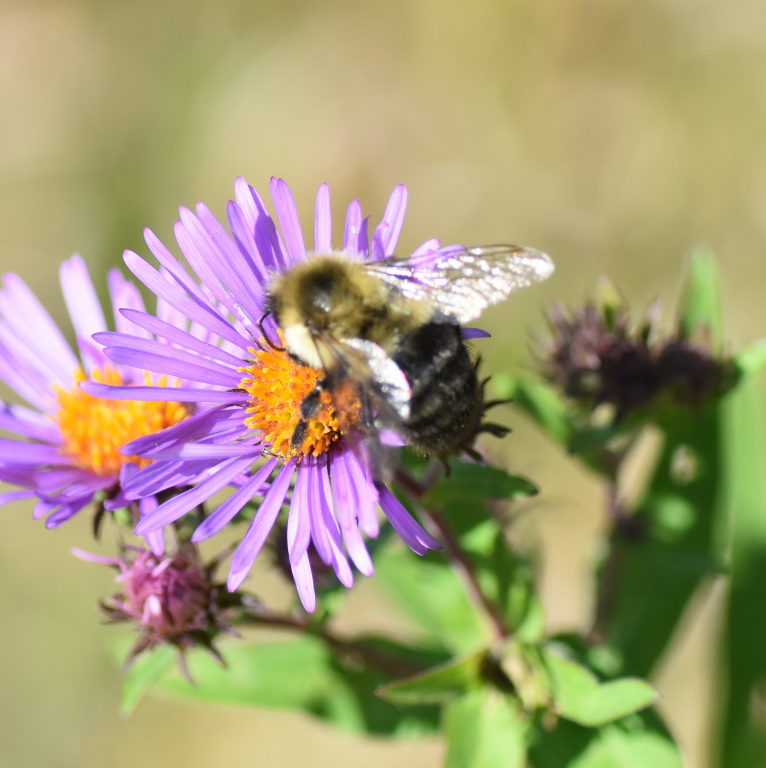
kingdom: Animalia
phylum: Arthropoda
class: Insecta
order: Hymenoptera
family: Apidae
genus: Bombus
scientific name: Bombus impatiens
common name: Common eastern bumble bee
